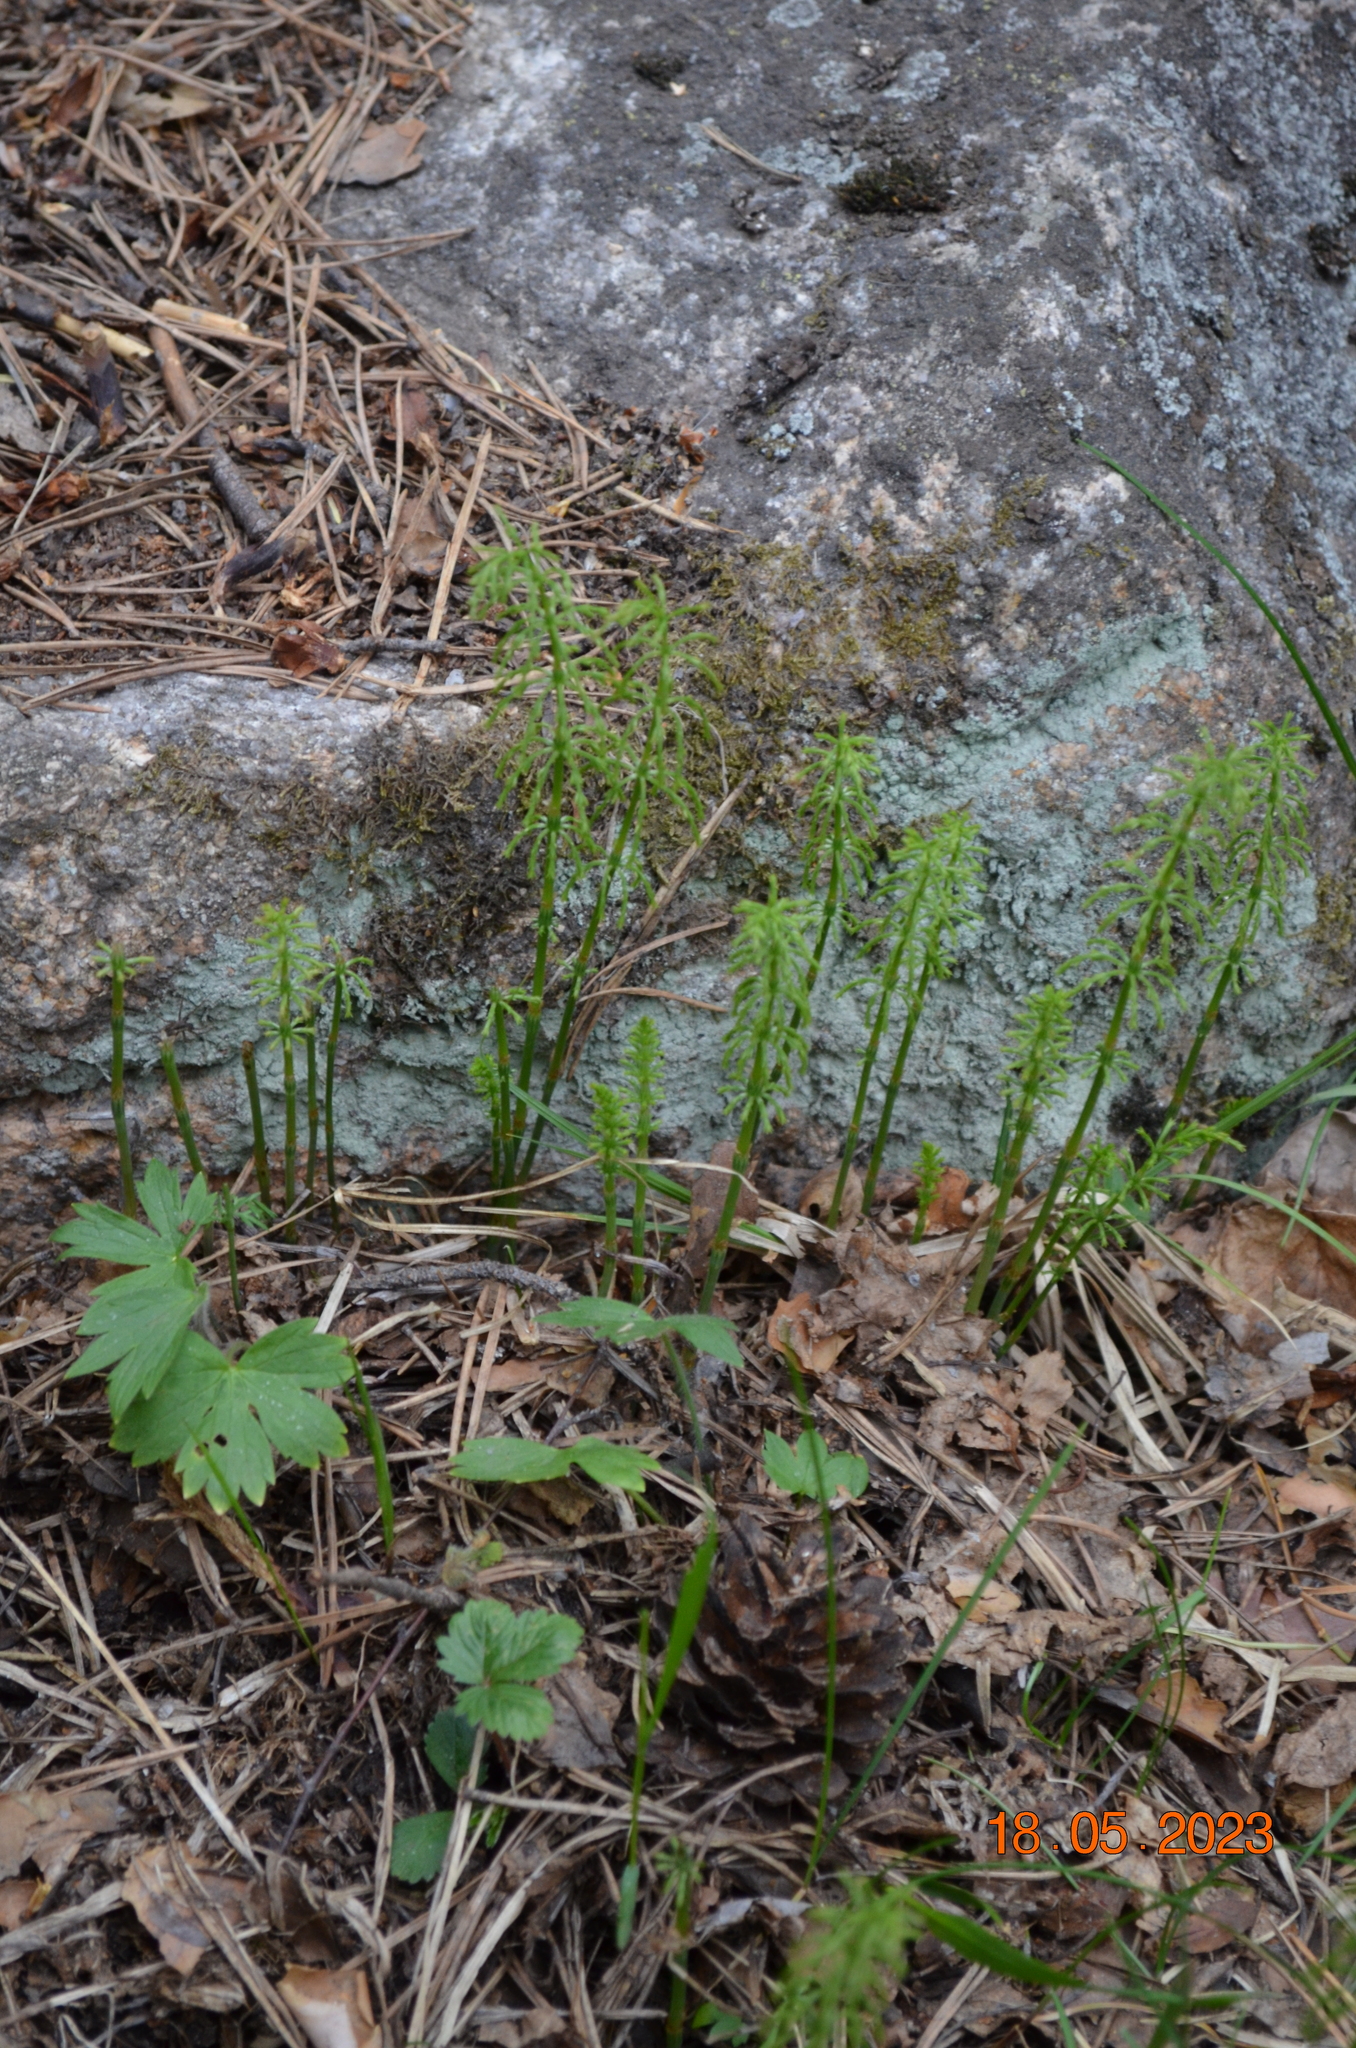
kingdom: Plantae
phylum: Tracheophyta
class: Polypodiopsida
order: Equisetales
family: Equisetaceae
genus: Equisetum
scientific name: Equisetum sylvaticum
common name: Wood horsetail
